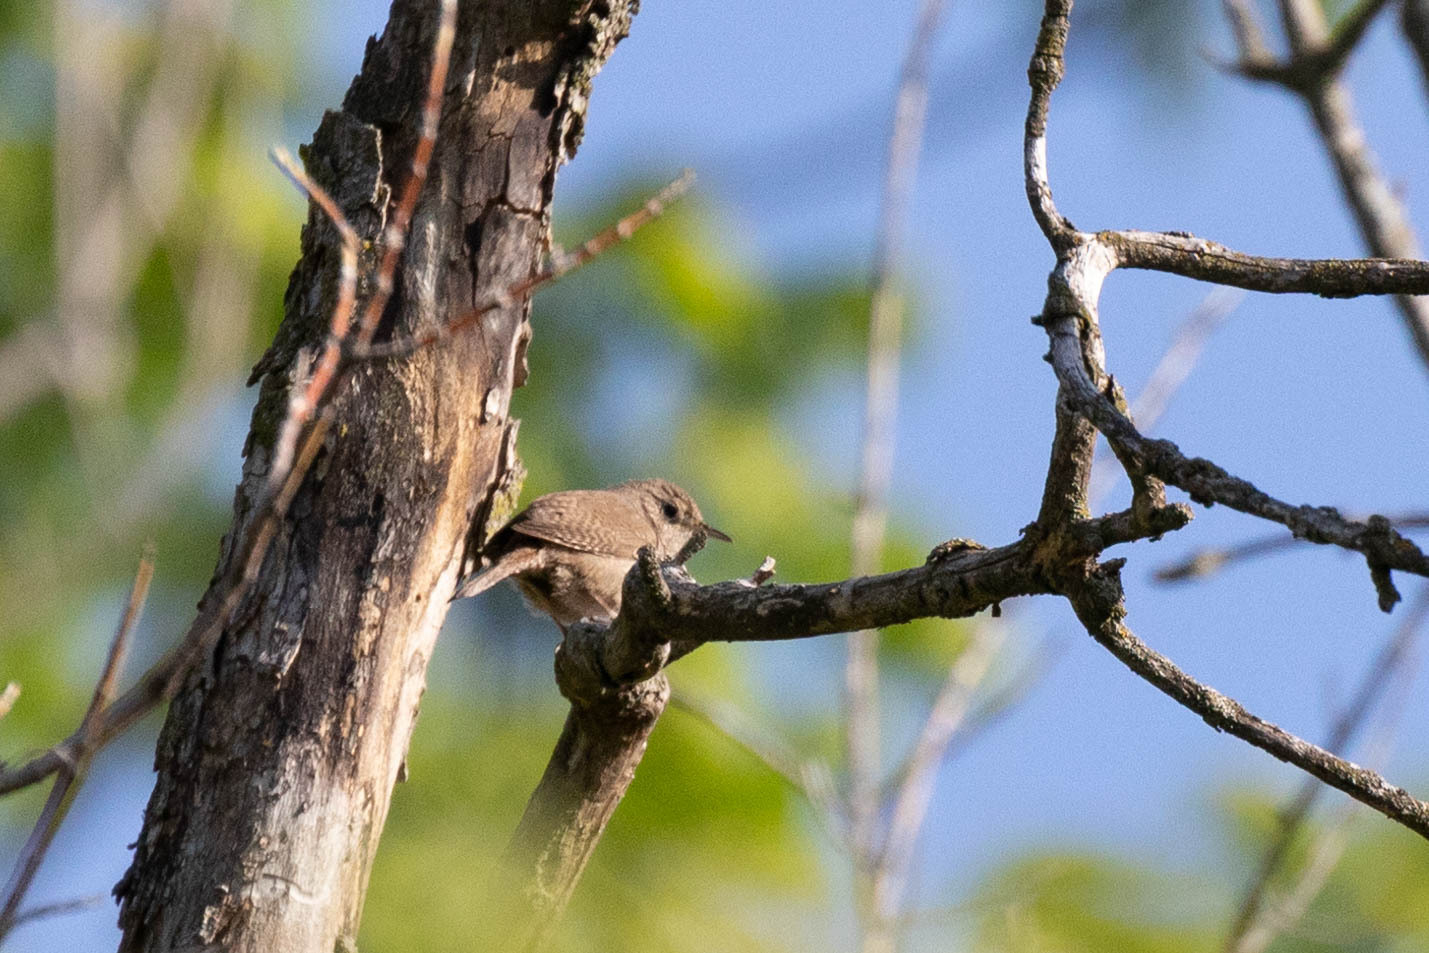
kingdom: Animalia
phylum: Chordata
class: Aves
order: Passeriformes
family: Troglodytidae
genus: Troglodytes
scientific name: Troglodytes aedon
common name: House wren
